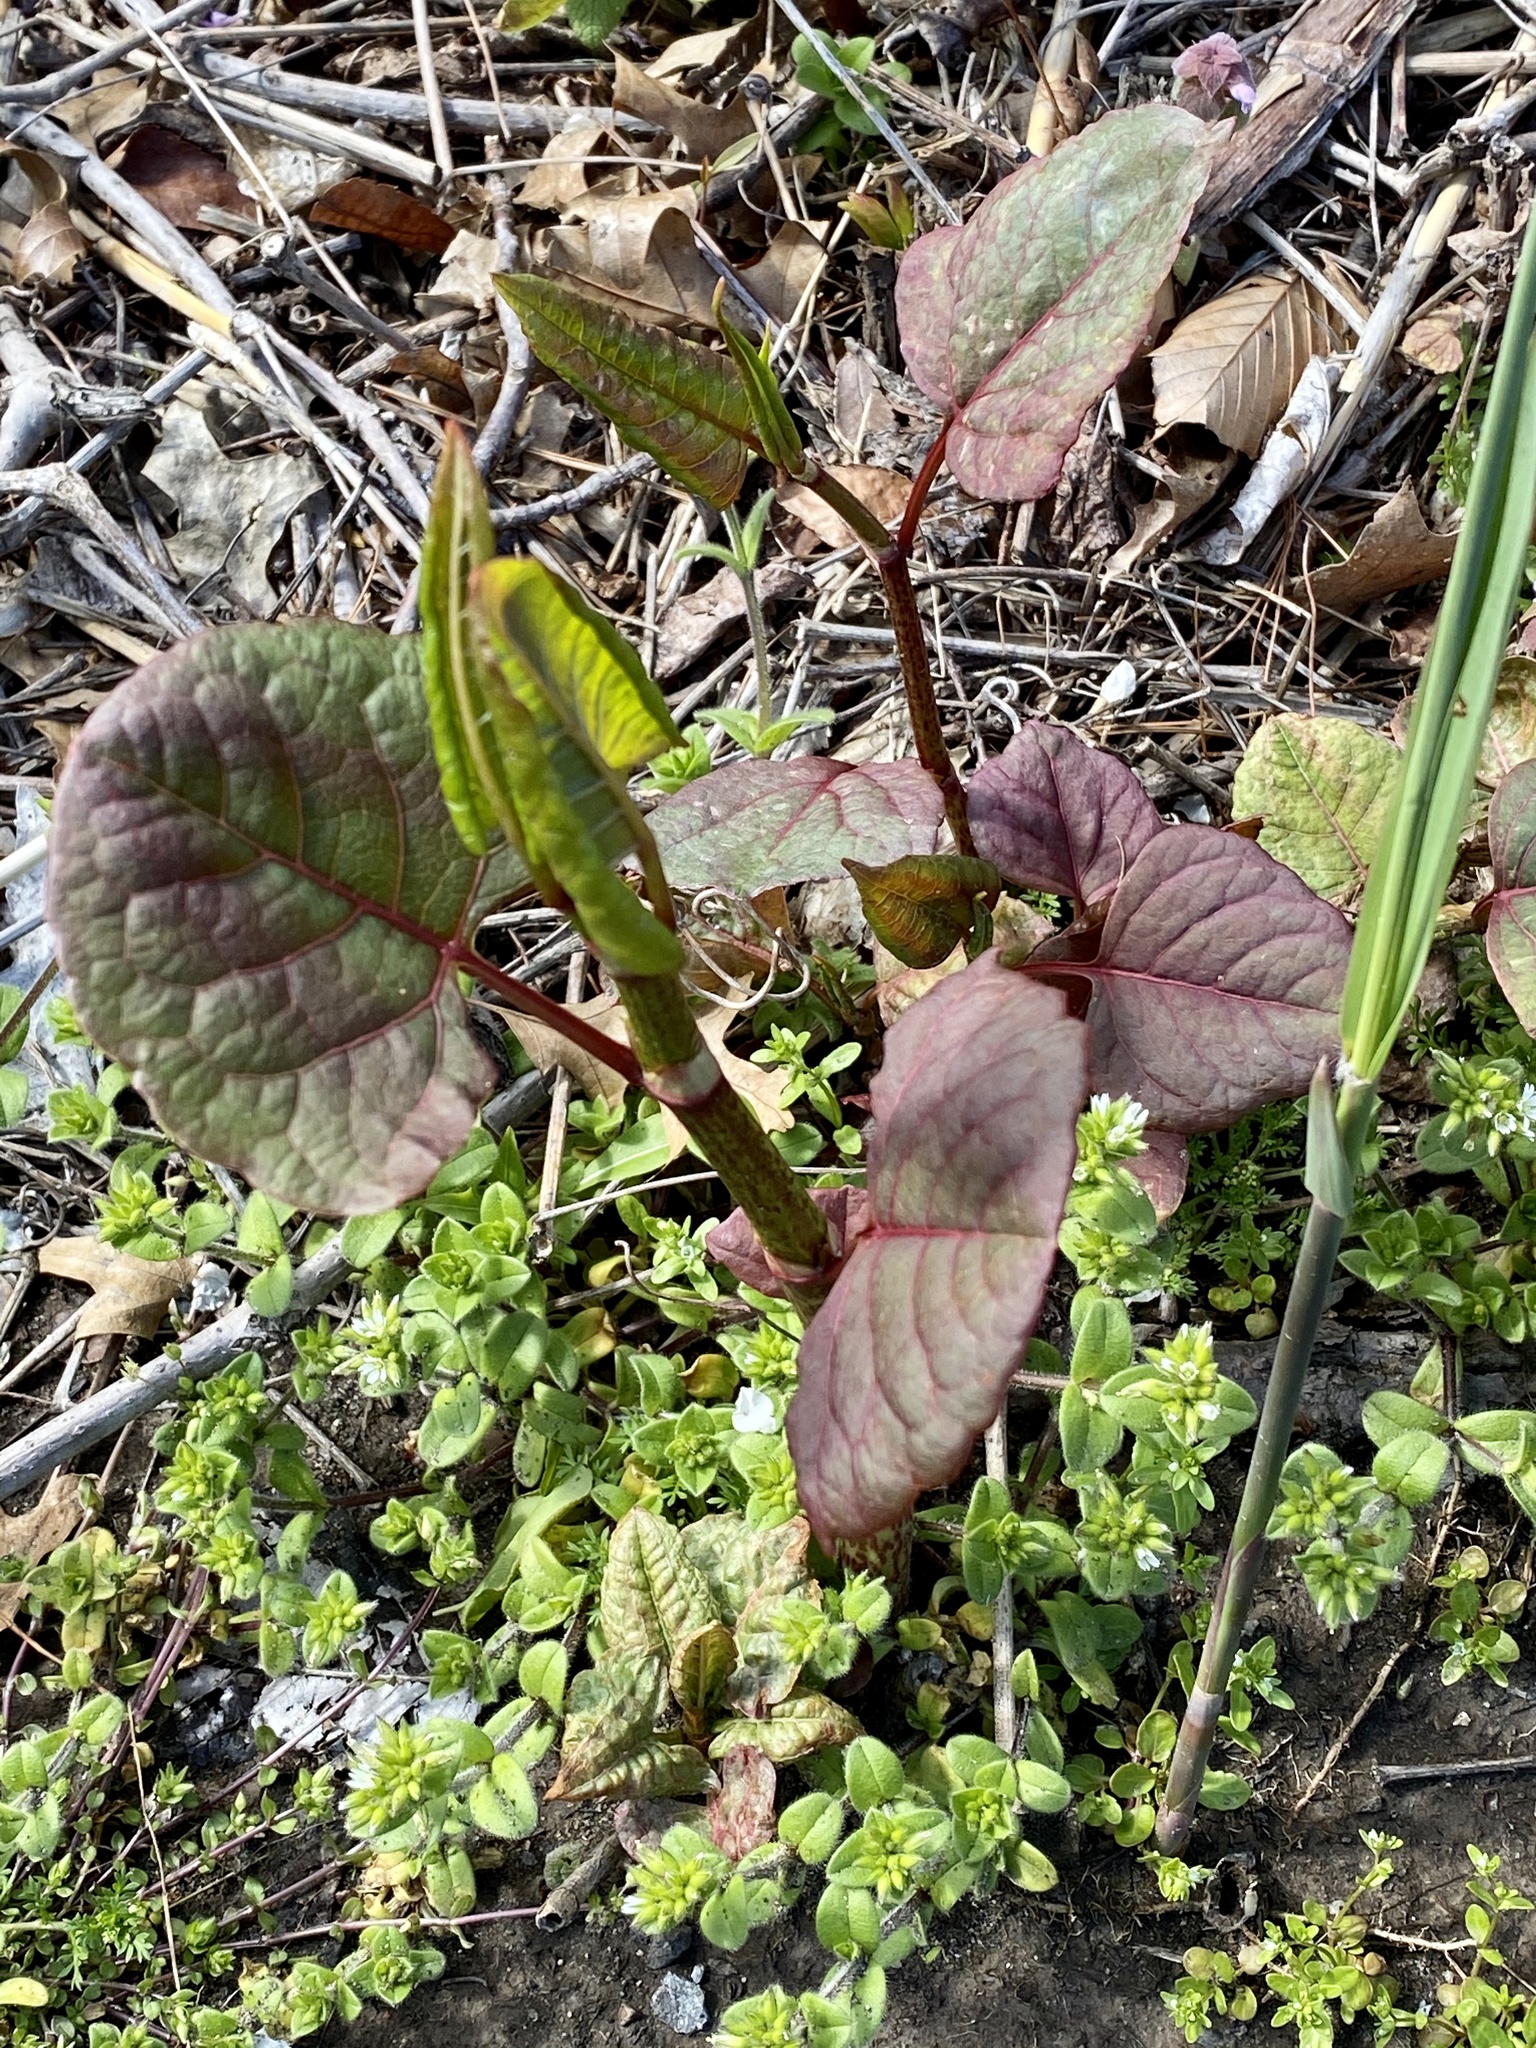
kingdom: Plantae
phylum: Tracheophyta
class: Magnoliopsida
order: Caryophyllales
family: Polygonaceae
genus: Reynoutria
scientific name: Reynoutria japonica
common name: Japanese knotweed
